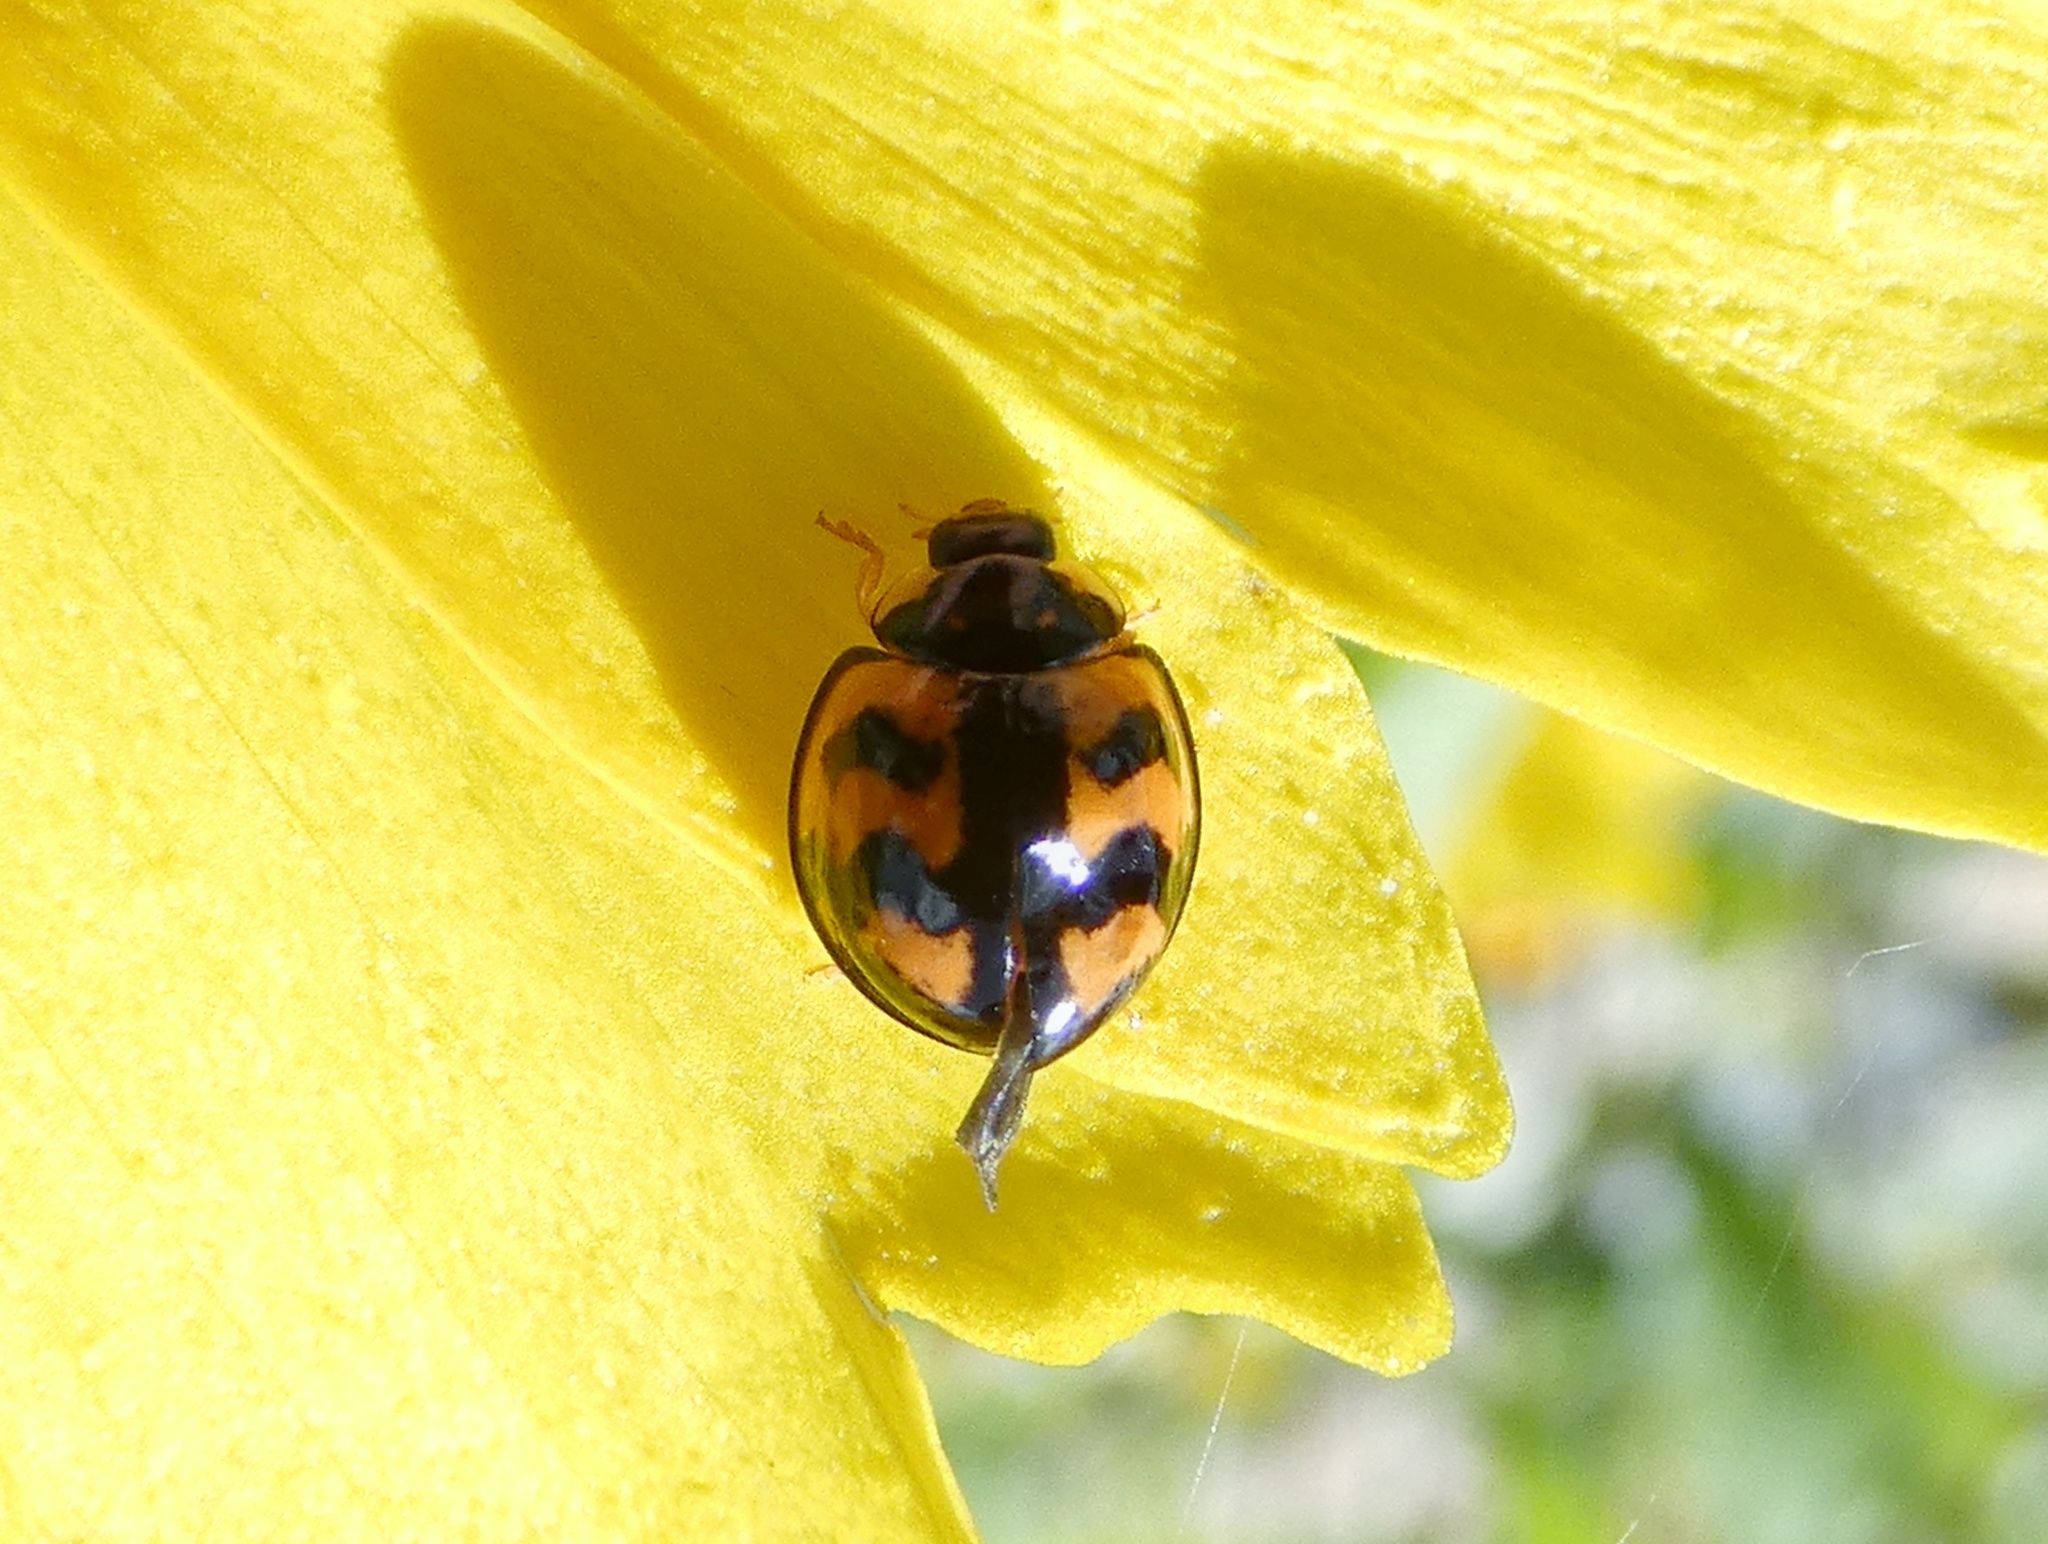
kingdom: Animalia
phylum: Arthropoda
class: Insecta
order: Coleoptera
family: Coccinellidae
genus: Cheilomenes
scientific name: Cheilomenes sexmaculata
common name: Ladybird beetle
